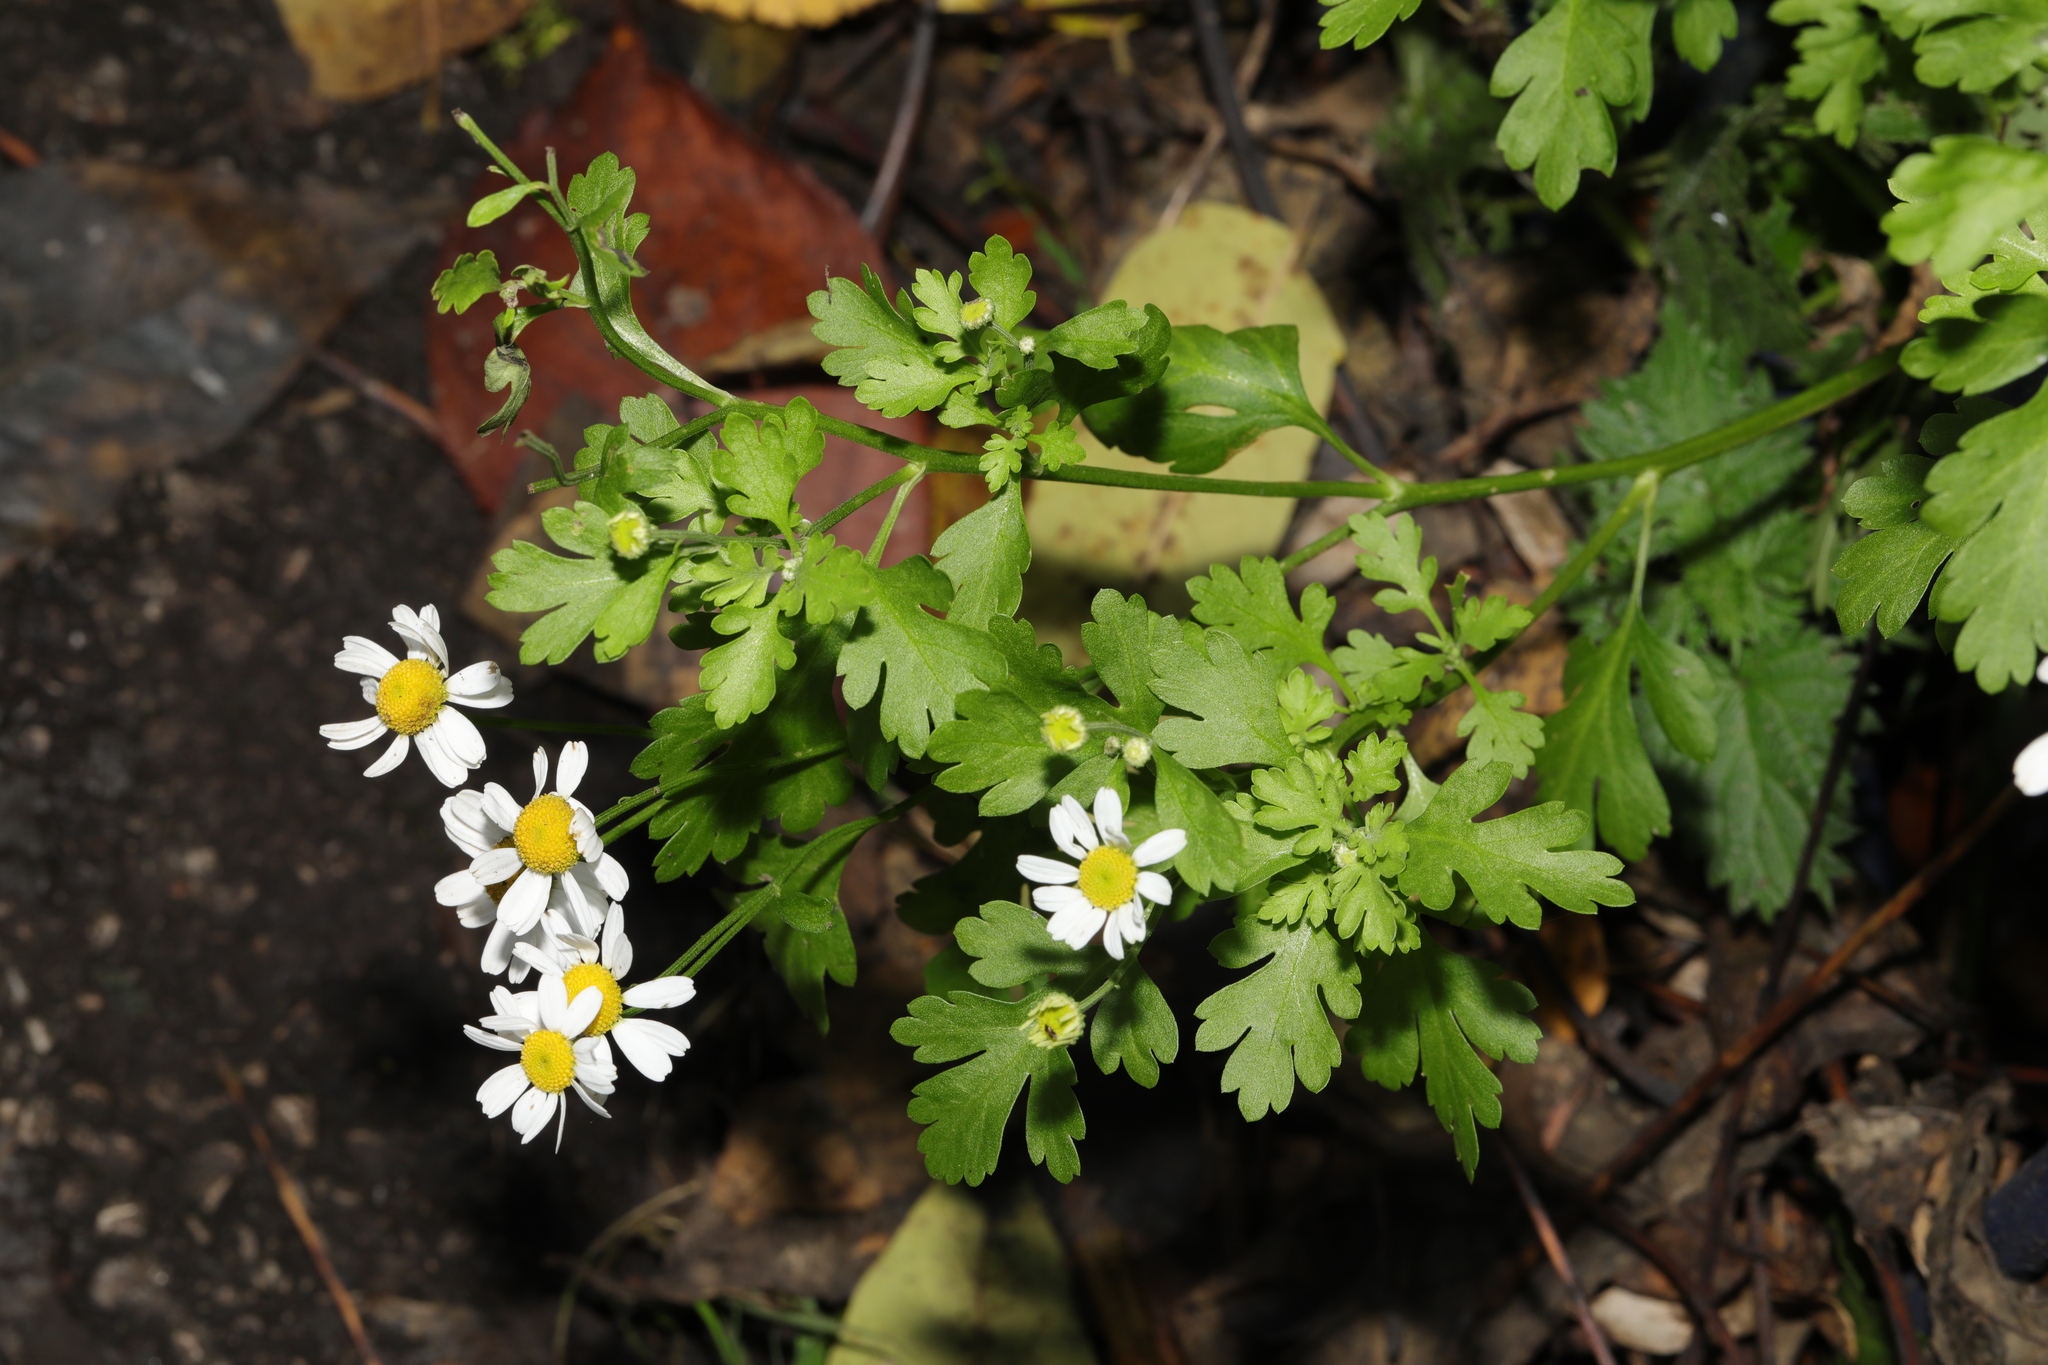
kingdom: Plantae
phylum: Tracheophyta
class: Magnoliopsida
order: Asterales
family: Asteraceae
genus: Tanacetum
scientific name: Tanacetum parthenium
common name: Feverfew
